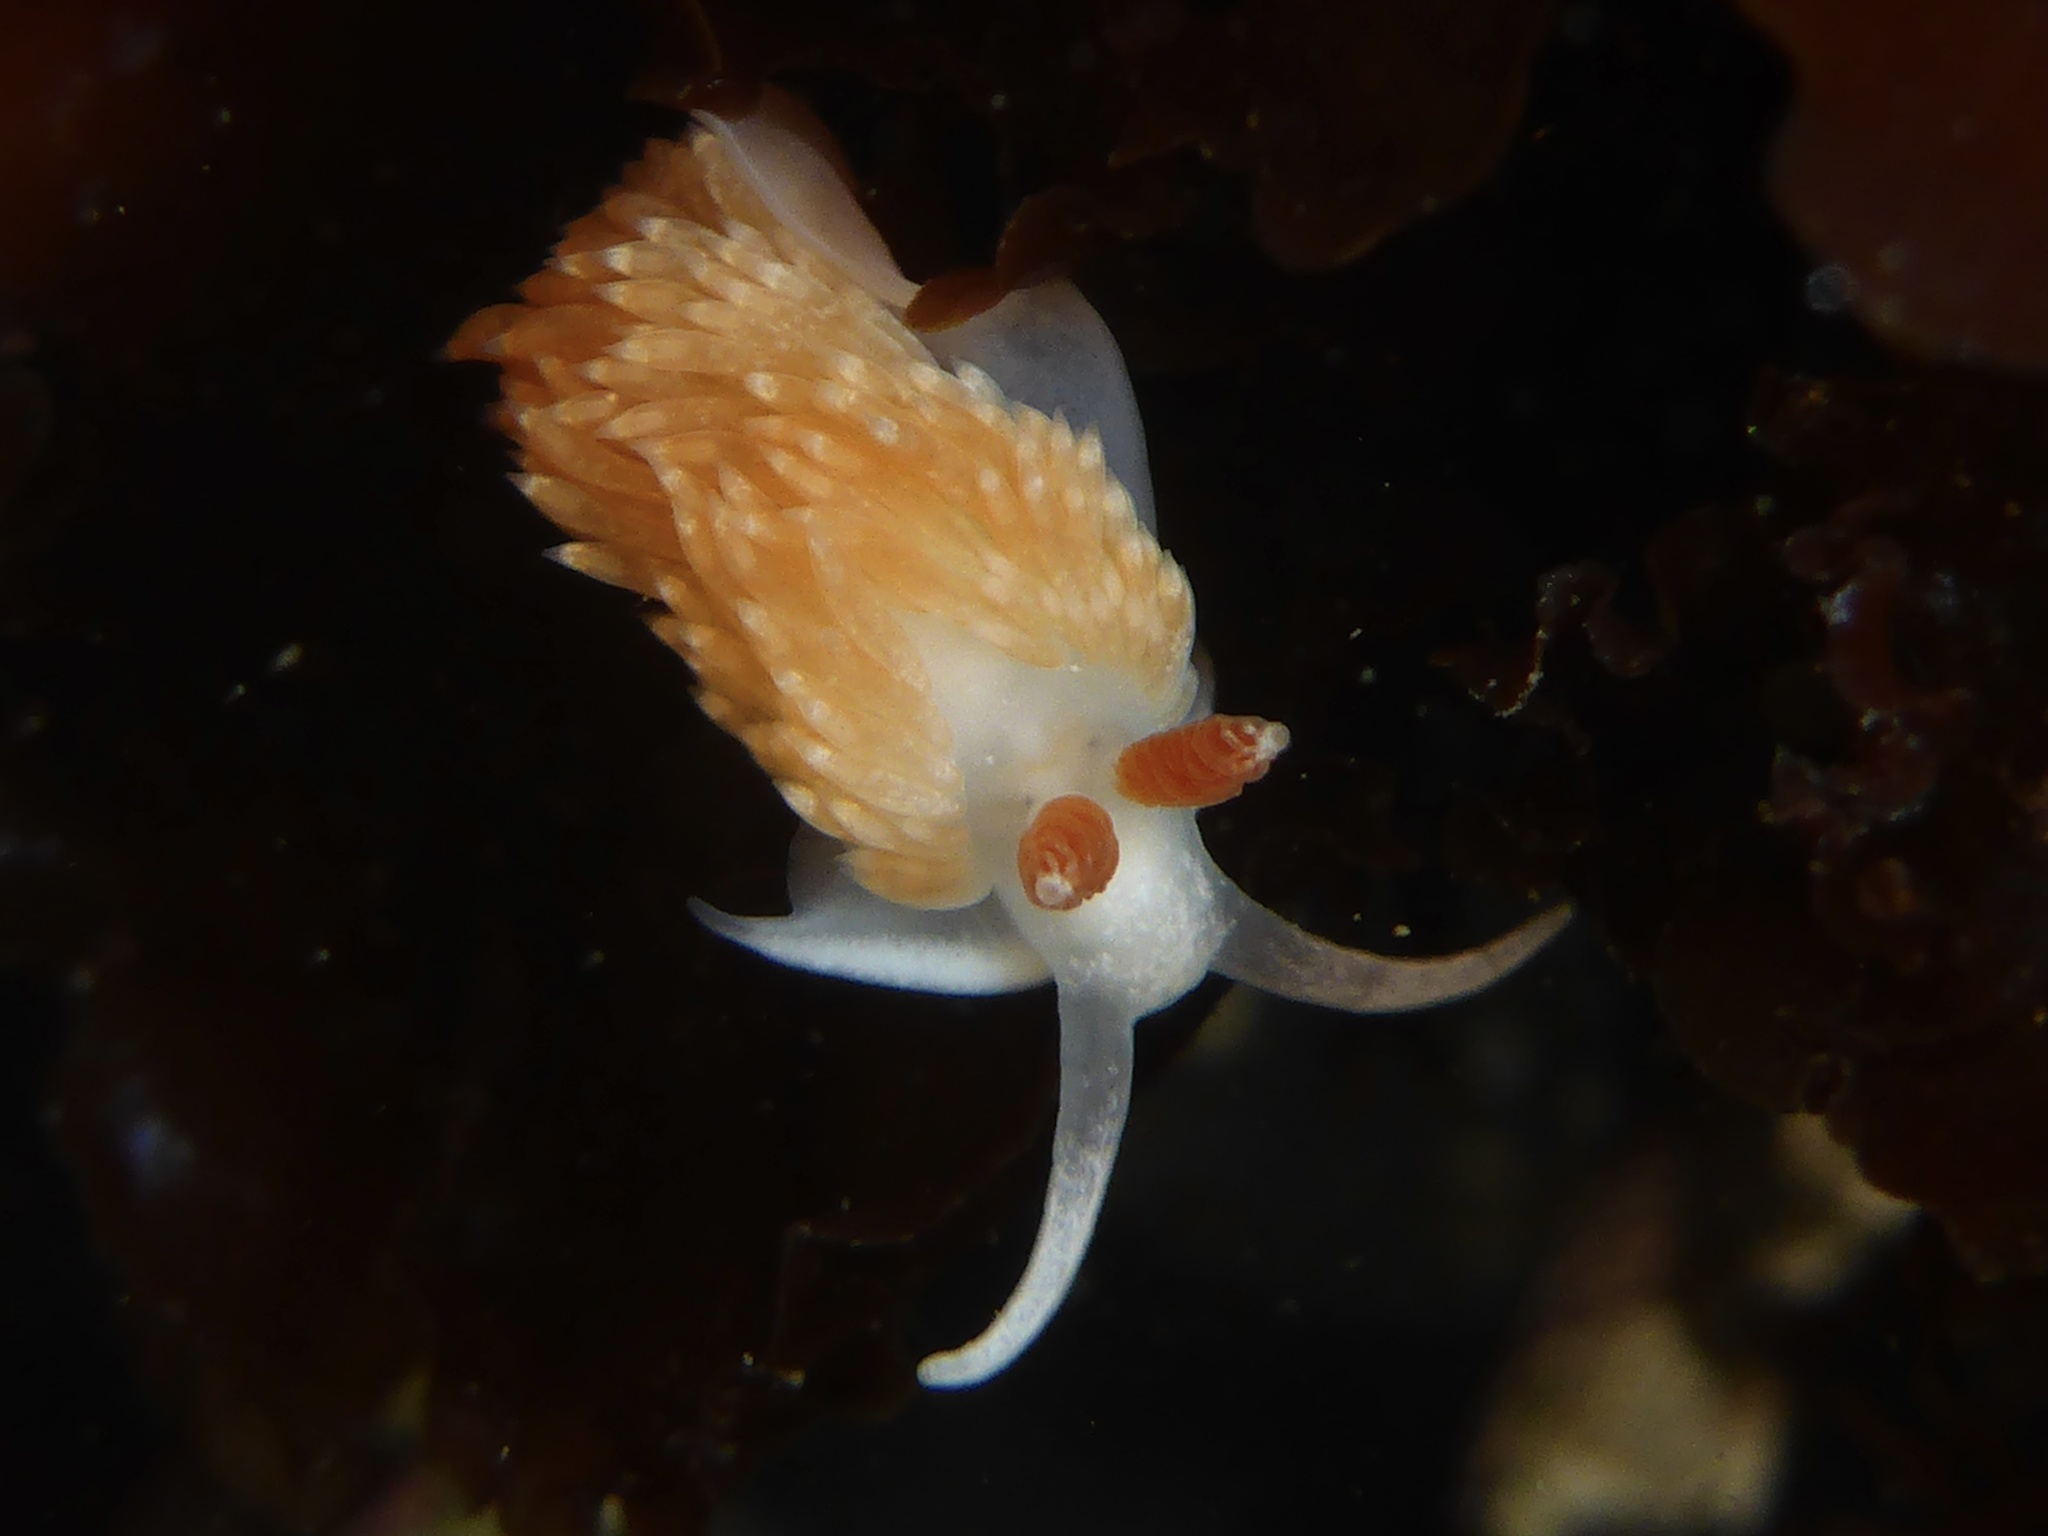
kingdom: Animalia
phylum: Mollusca
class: Gastropoda
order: Nudibranchia
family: Aeolidiidae
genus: Anteaeolidiella
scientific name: Anteaeolidiella oliviae
